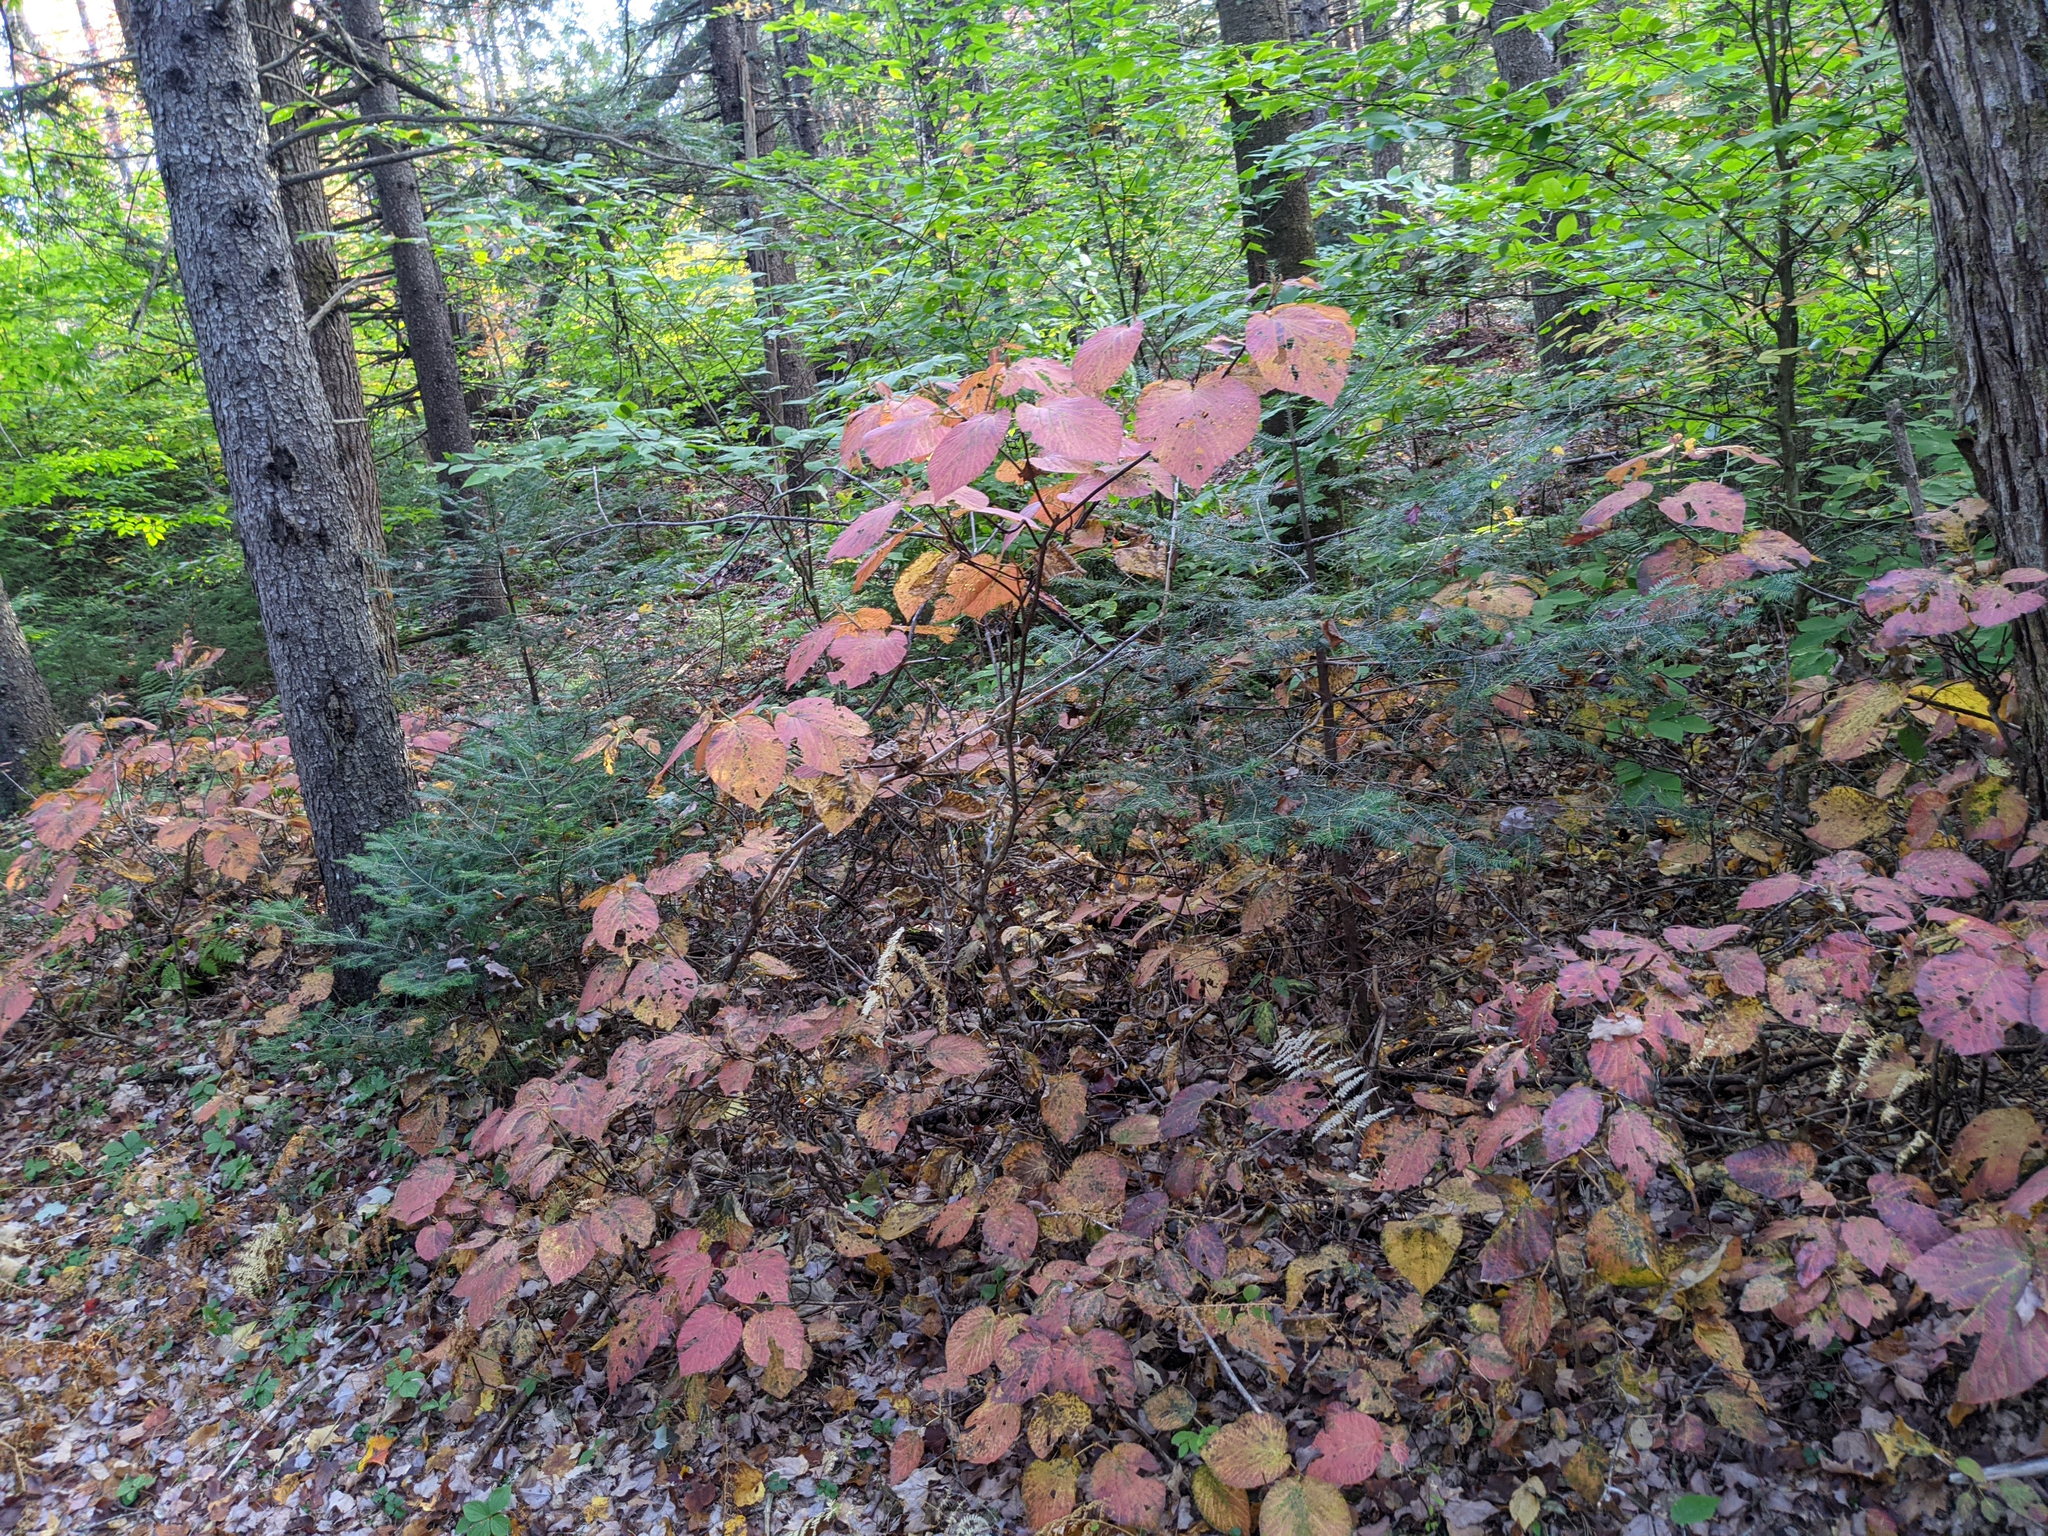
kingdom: Plantae
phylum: Tracheophyta
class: Magnoliopsida
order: Dipsacales
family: Viburnaceae
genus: Viburnum
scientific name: Viburnum lantanoides
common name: Hobblebush
